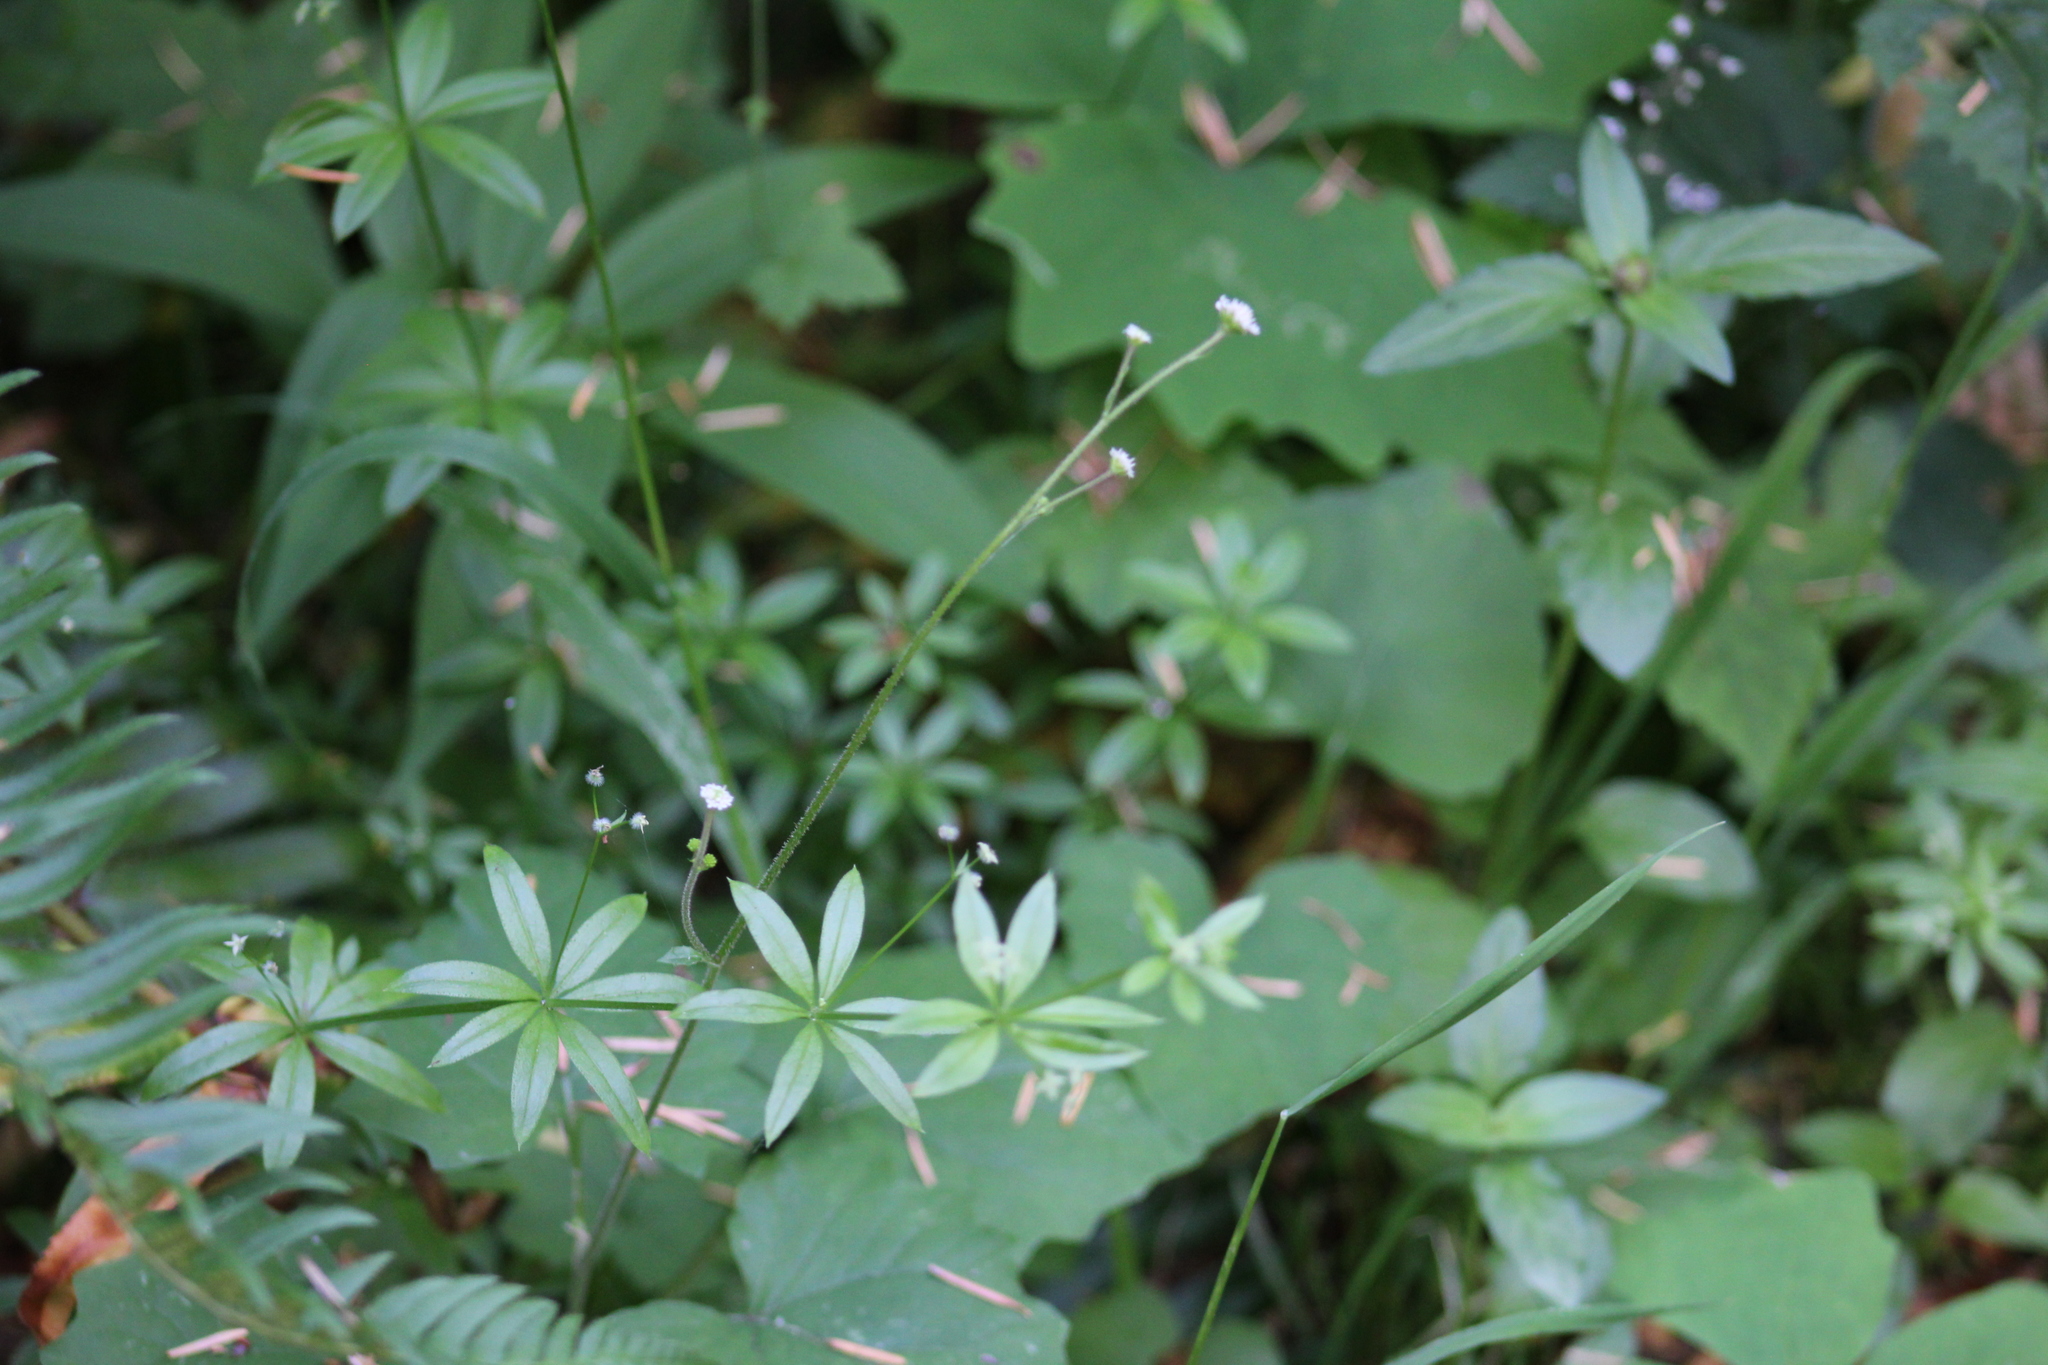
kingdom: Plantae
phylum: Tracheophyta
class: Magnoliopsida
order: Gentianales
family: Rubiaceae
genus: Galium
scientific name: Galium triflorum
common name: Fragrant bedstraw
